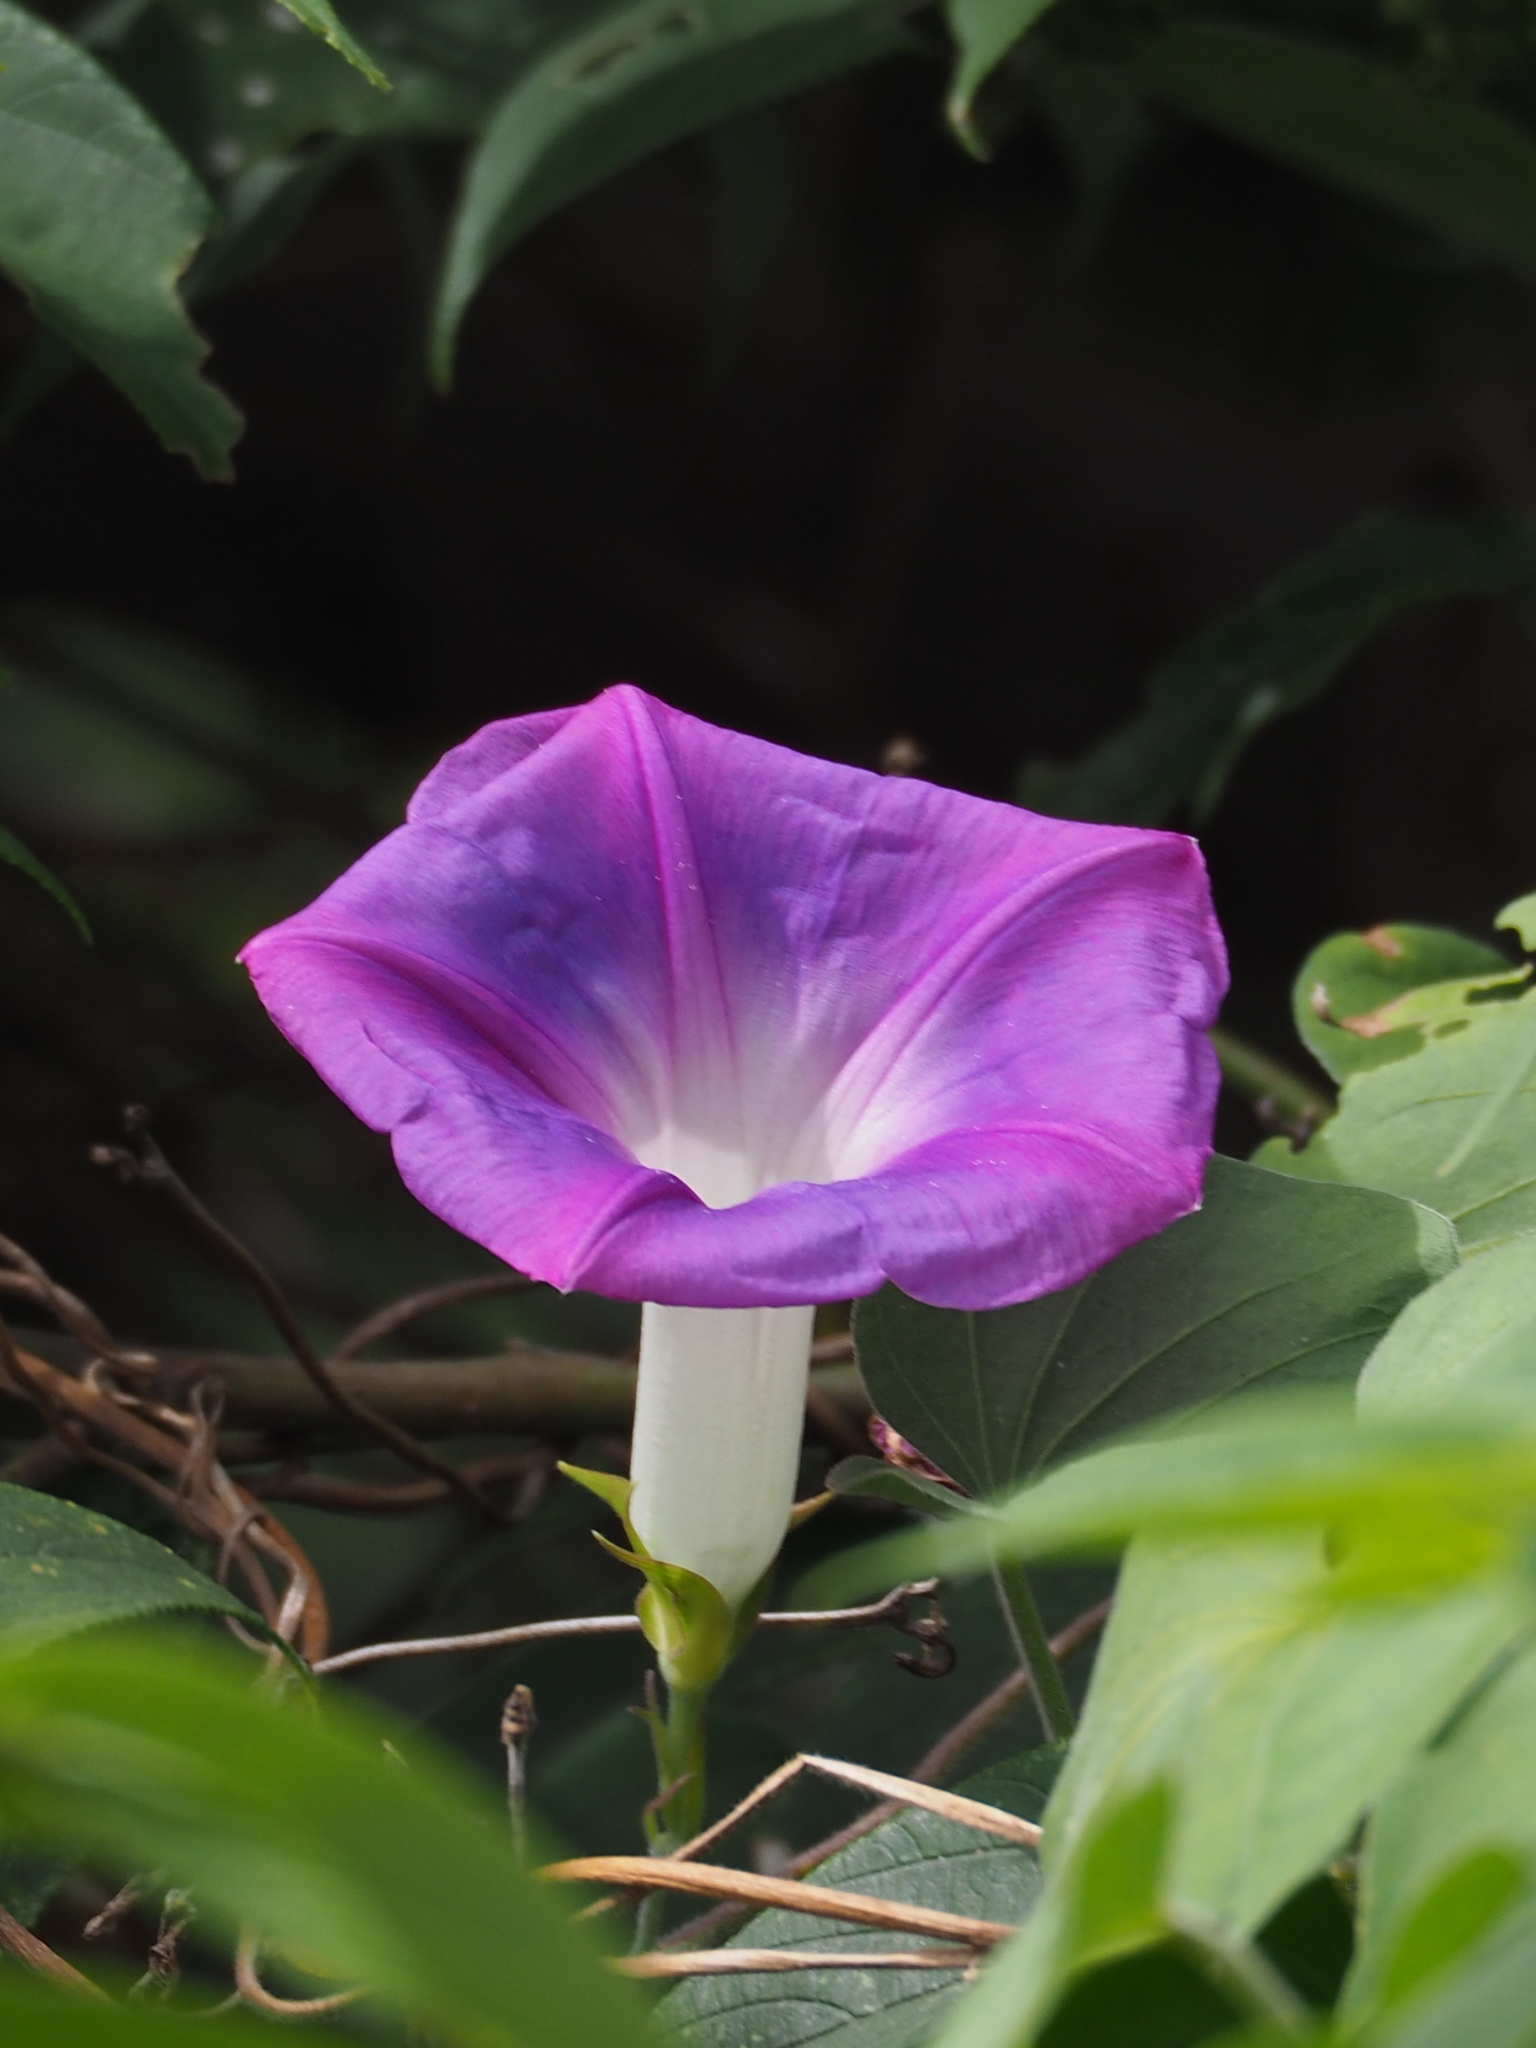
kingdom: Plantae
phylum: Tracheophyta
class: Magnoliopsida
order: Solanales
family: Convolvulaceae
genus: Ipomoea
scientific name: Ipomoea indica
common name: Blue dawnflower
